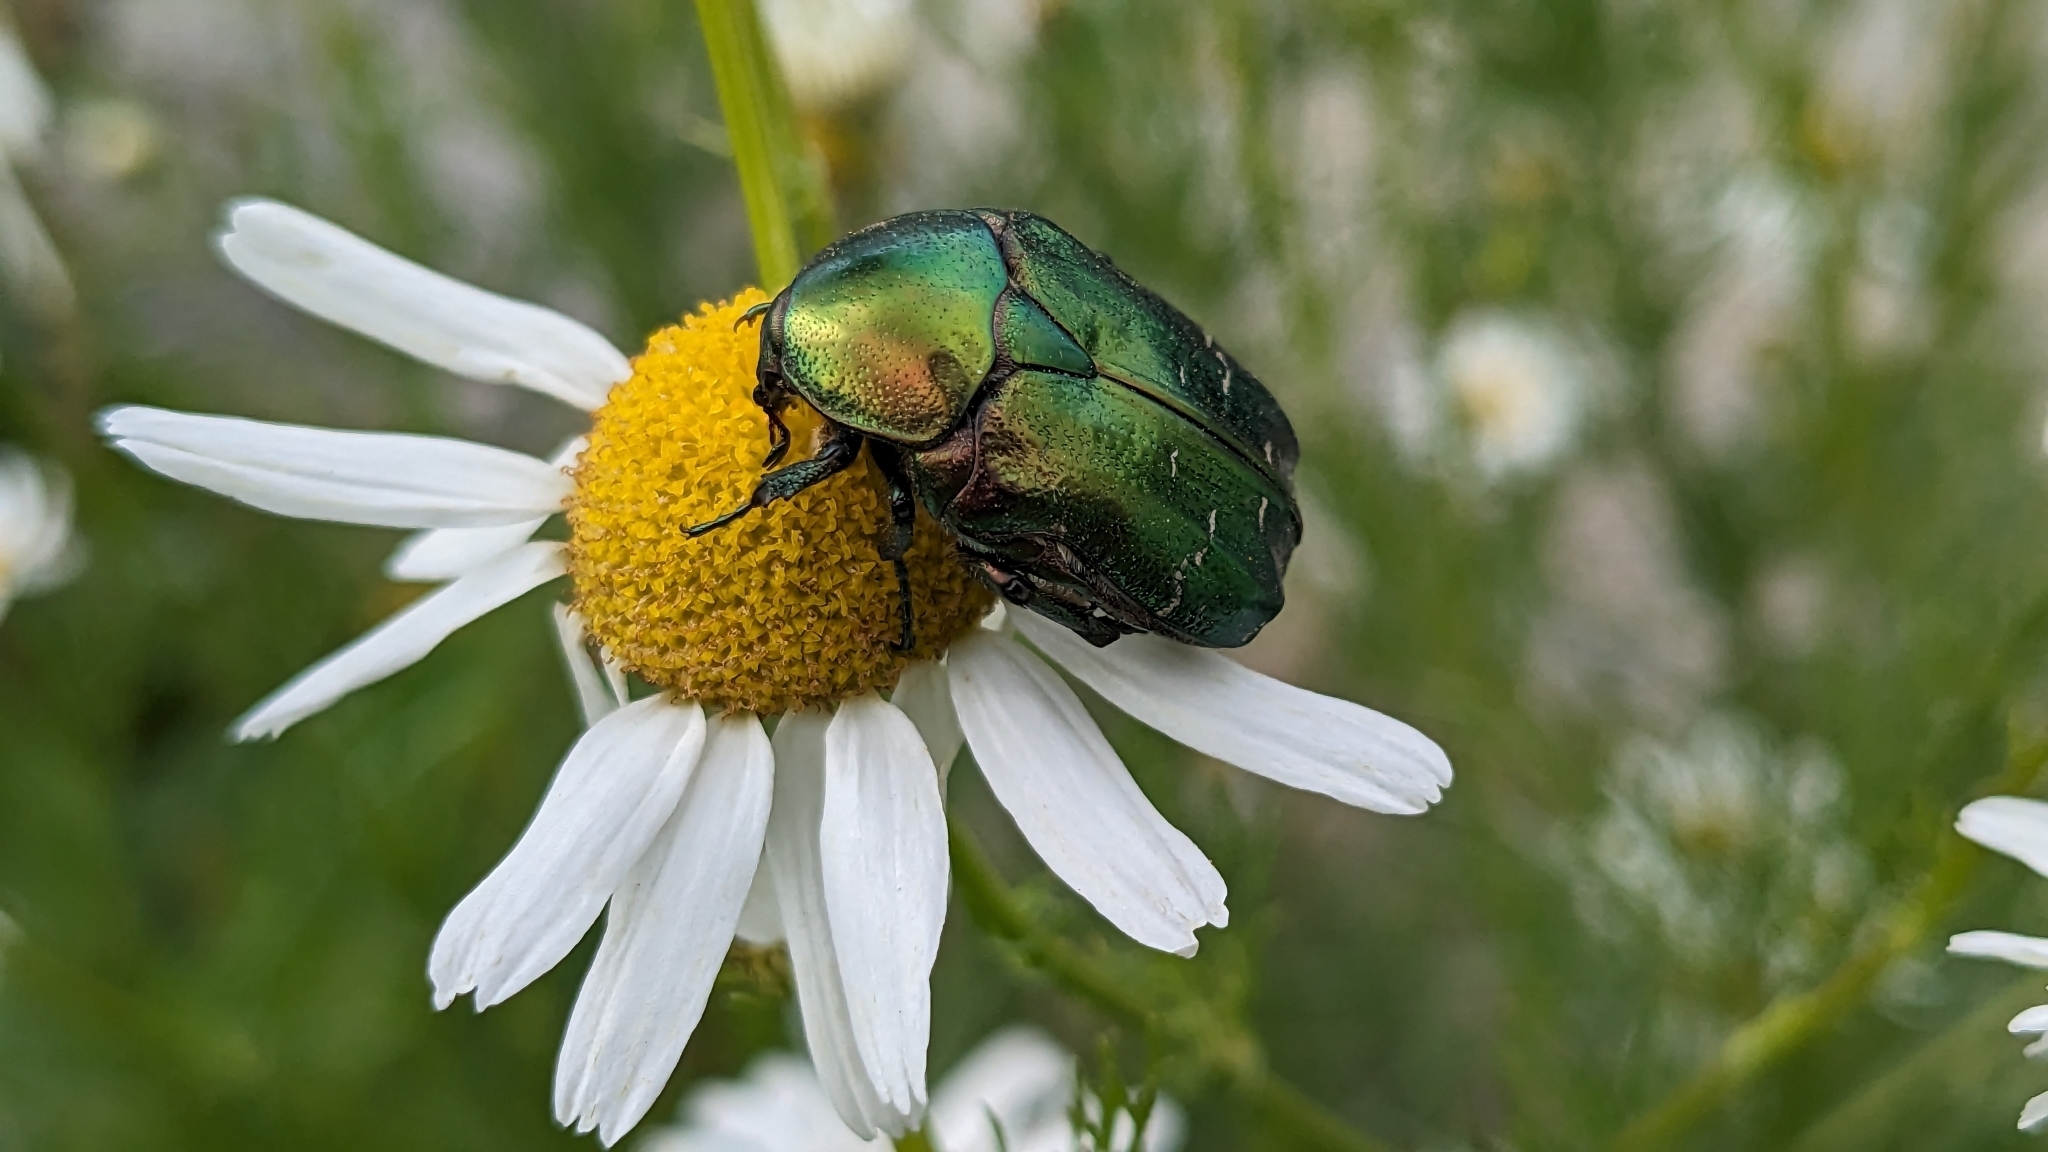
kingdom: Animalia
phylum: Arthropoda
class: Insecta
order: Coleoptera
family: Scarabaeidae
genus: Cetonia
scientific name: Cetonia aurata
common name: Rose chafer
